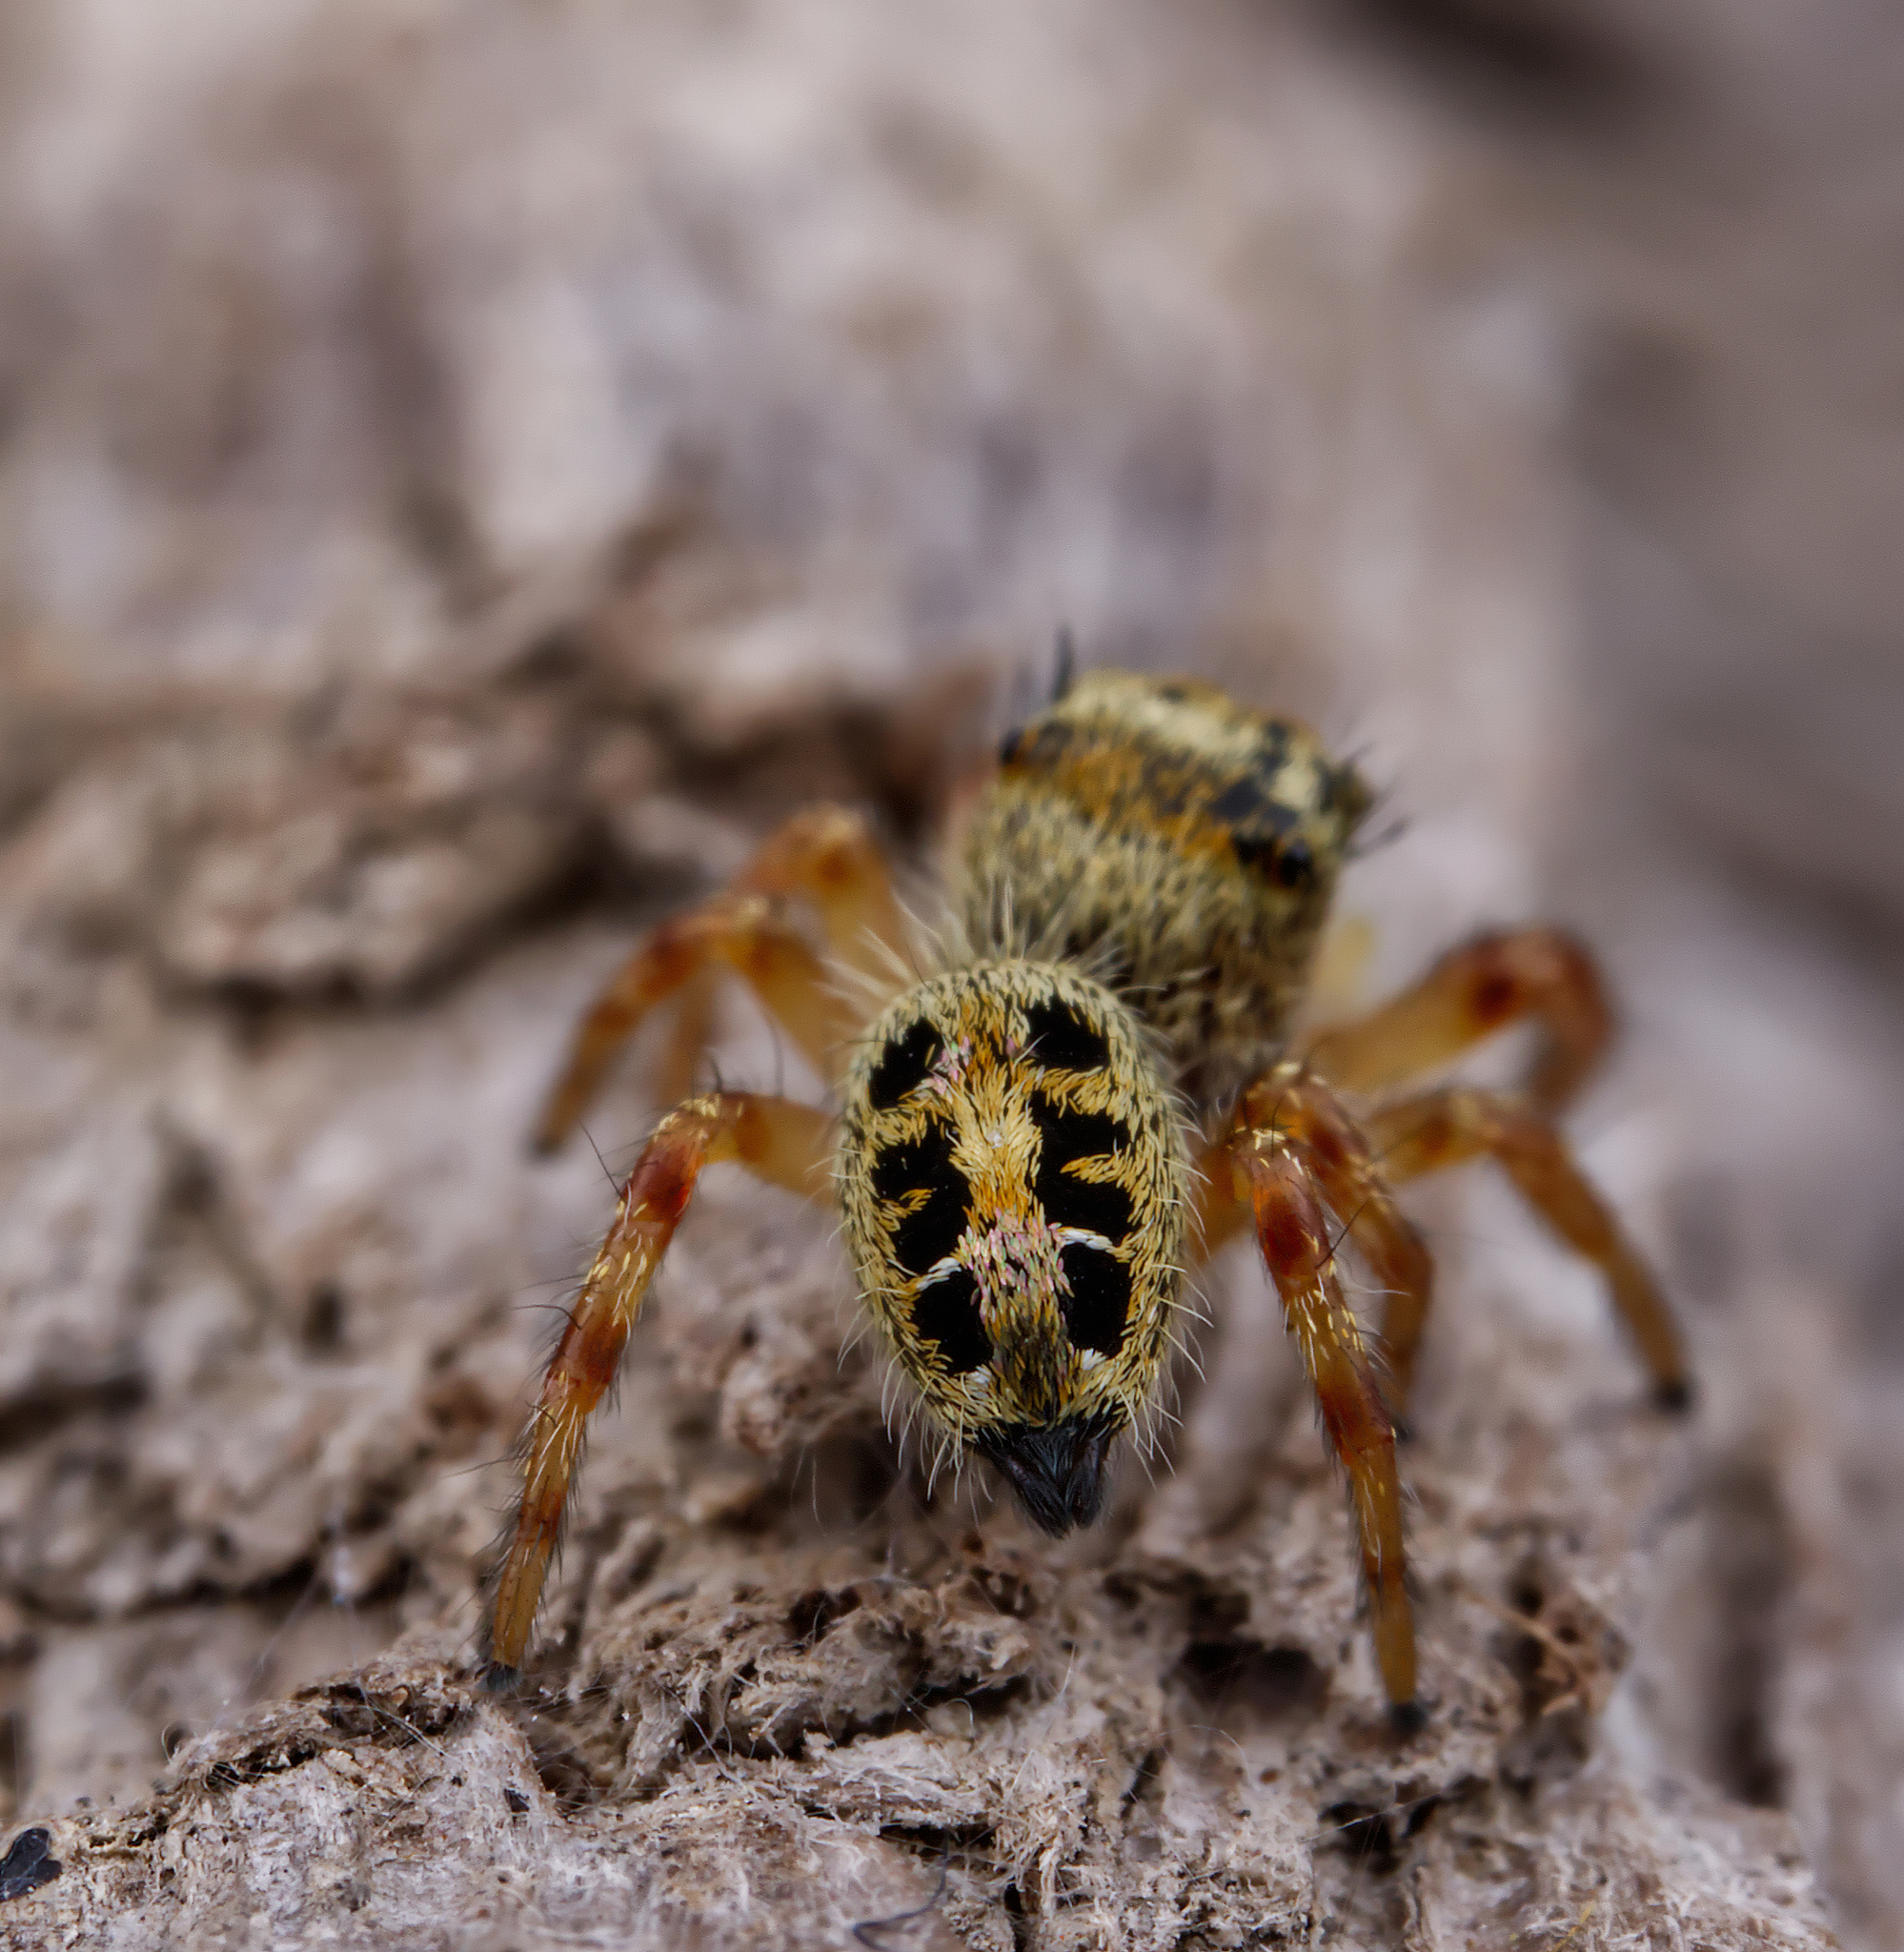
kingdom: Animalia
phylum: Arthropoda
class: Arachnida
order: Araneae
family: Salticidae
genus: Phidippus
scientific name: Phidippus princeps
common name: Grayish jumping spider
